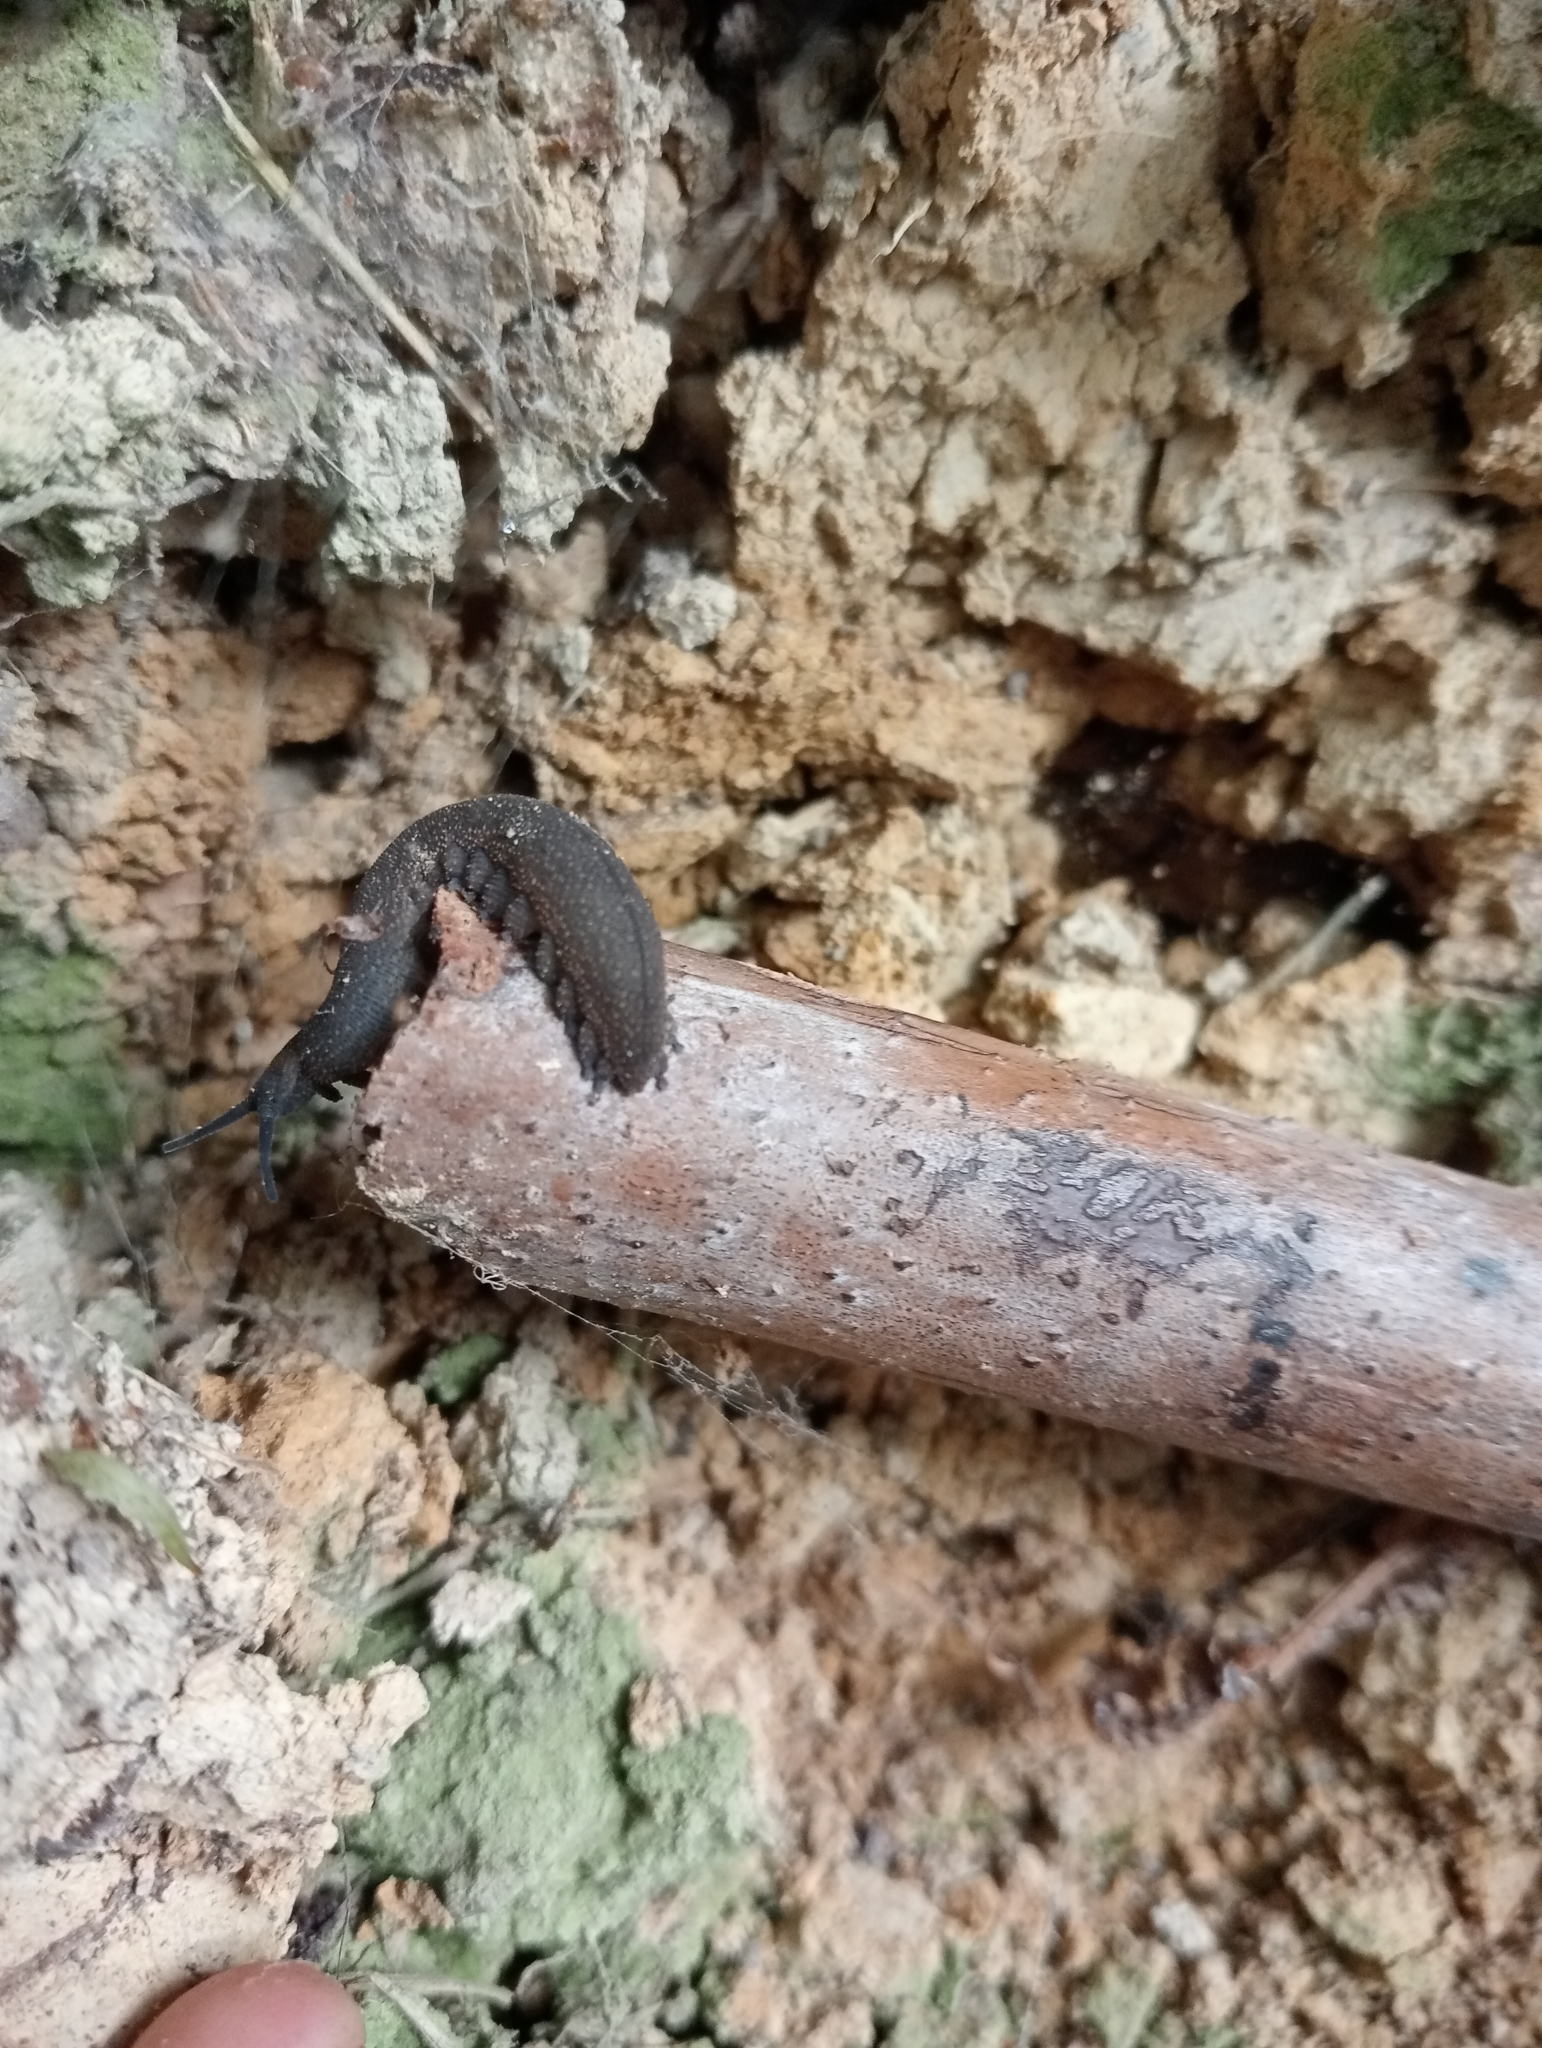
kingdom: Animalia
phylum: Onychophora
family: Peripatopsidae
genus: Peripatoides
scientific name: Peripatoides novaezealandiae
